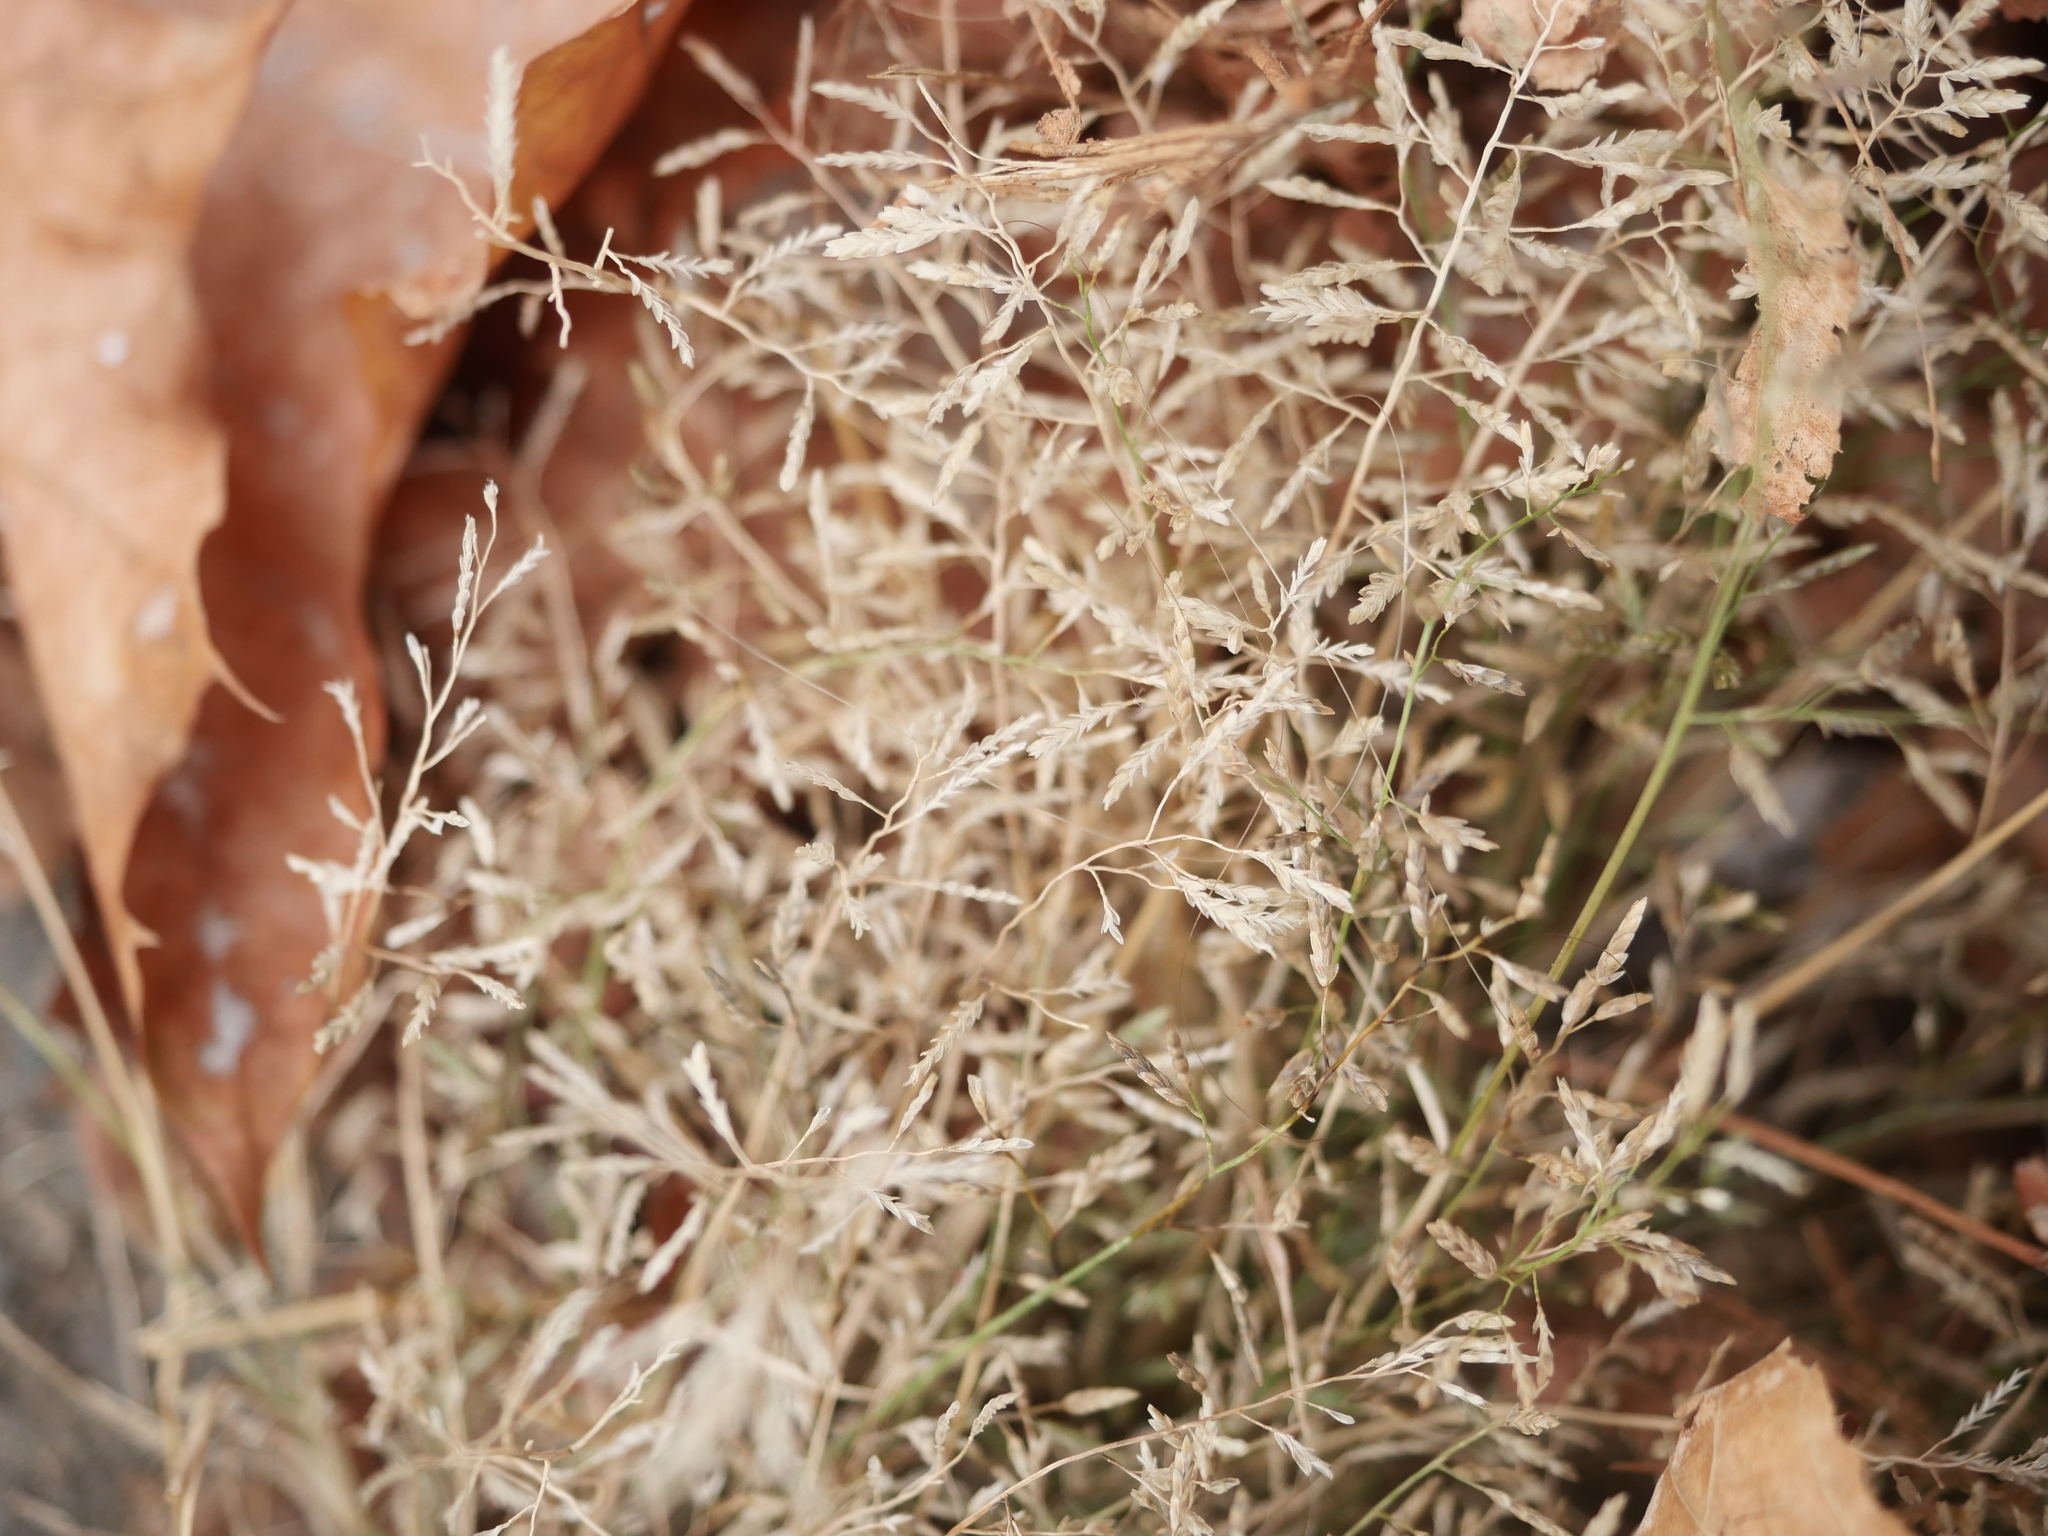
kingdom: Plantae
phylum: Tracheophyta
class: Liliopsida
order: Poales
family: Poaceae
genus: Eragrostis
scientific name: Eragrostis minor
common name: Small love-grass
